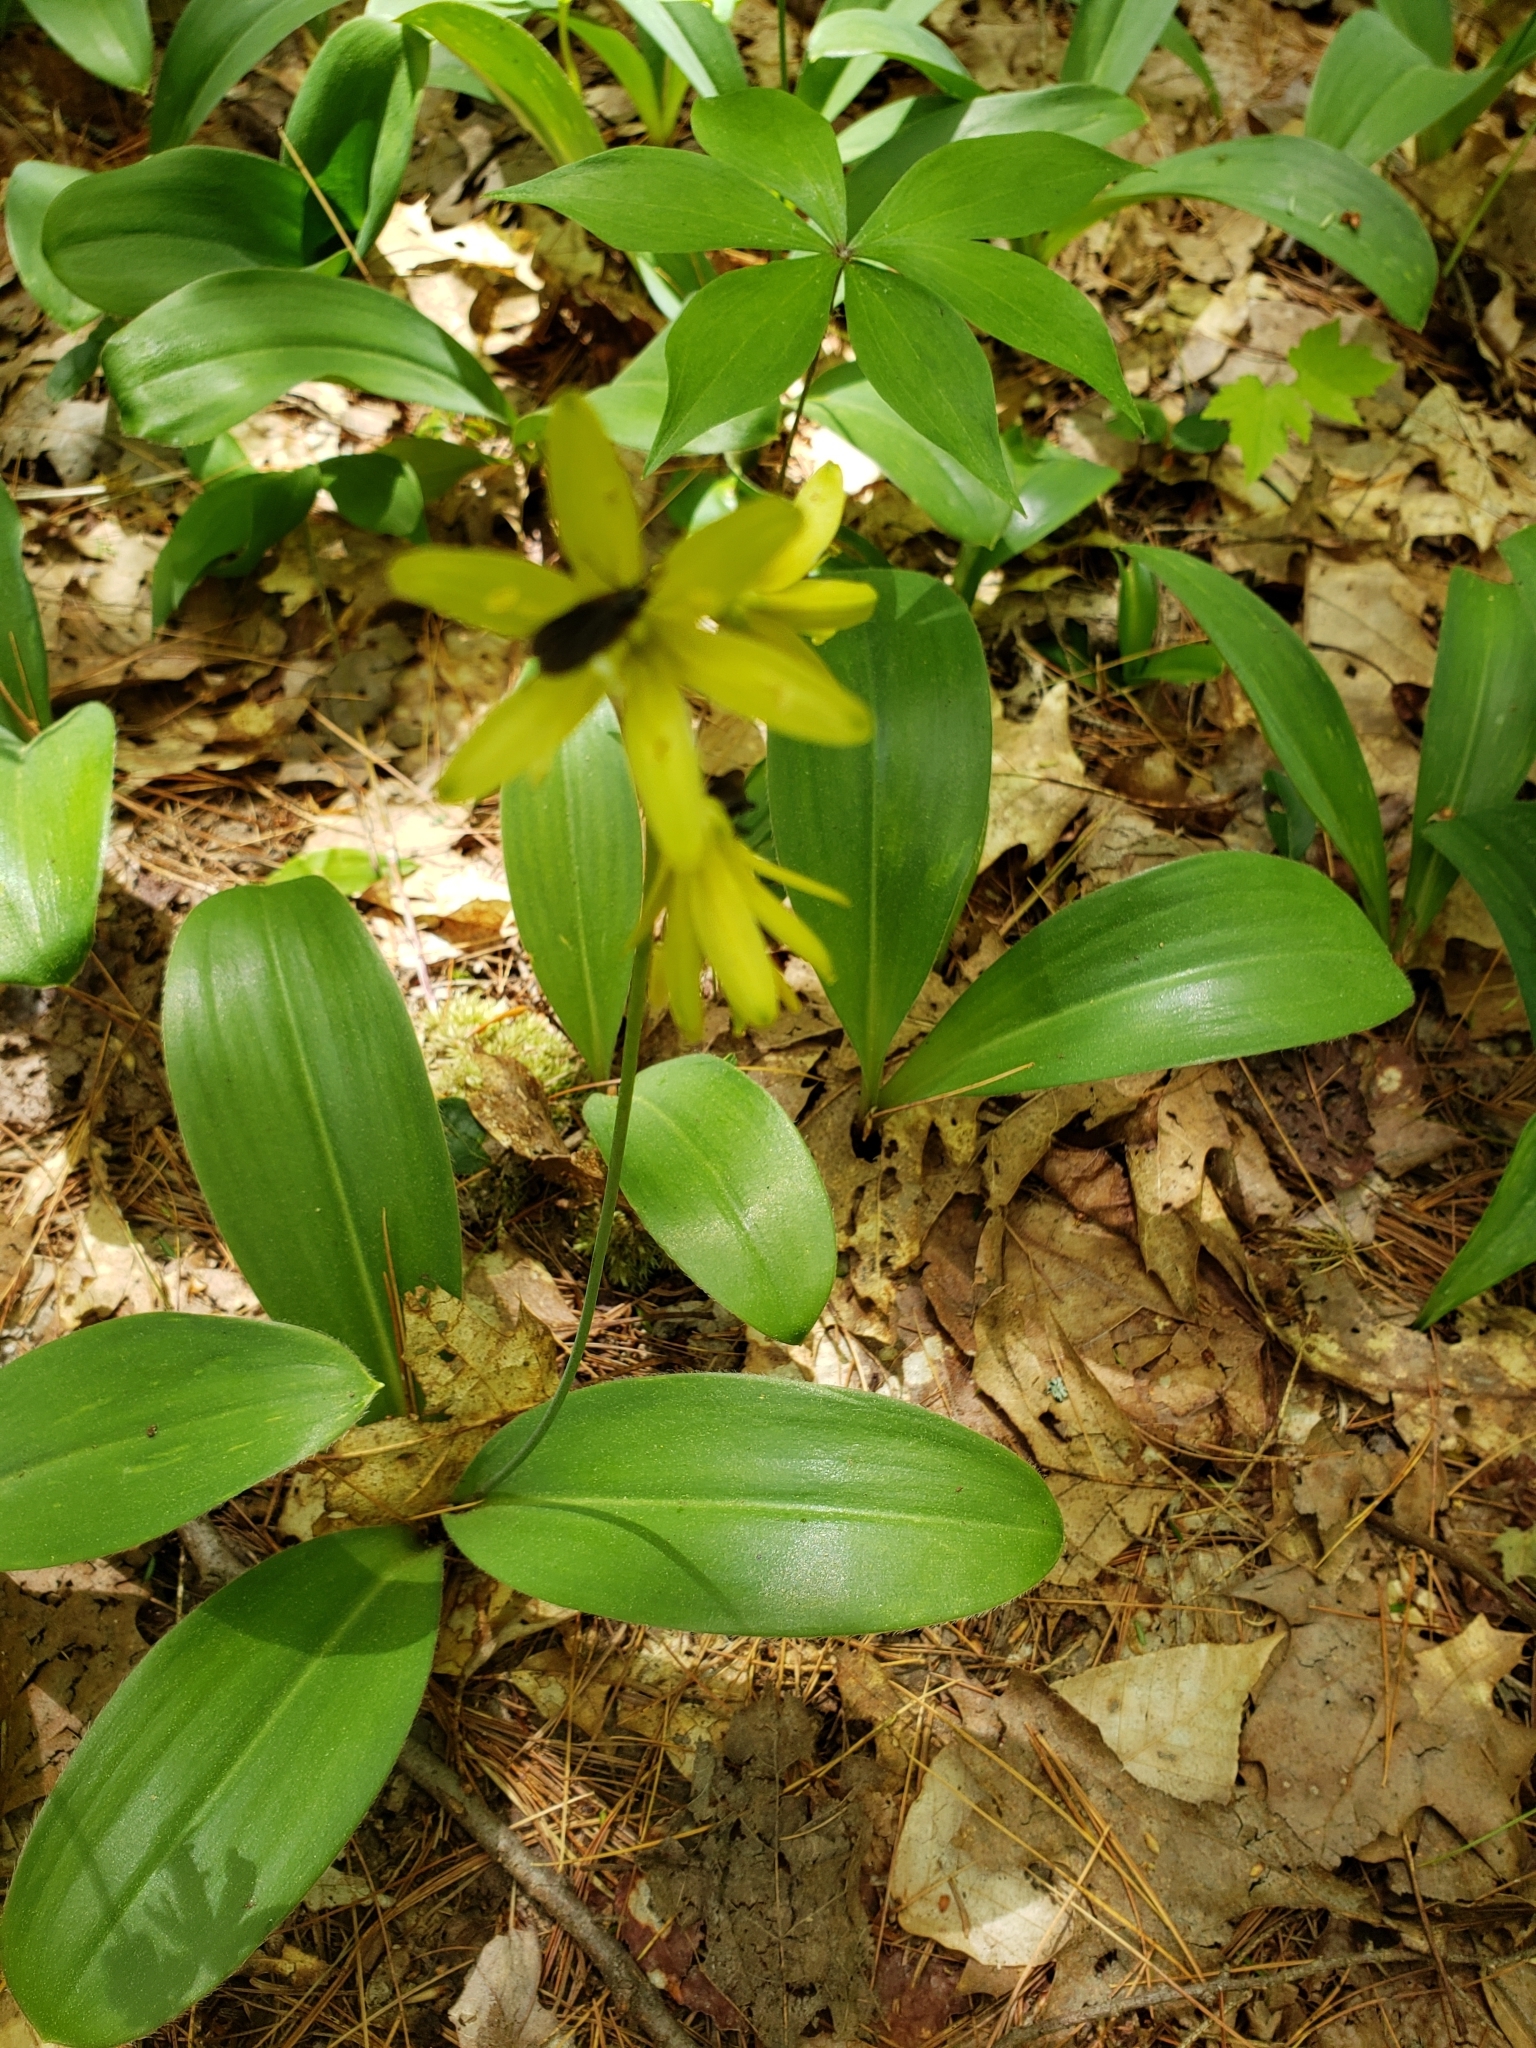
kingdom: Plantae
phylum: Tracheophyta
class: Liliopsida
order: Liliales
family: Liliaceae
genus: Clintonia
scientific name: Clintonia borealis
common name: Yellow clintonia
